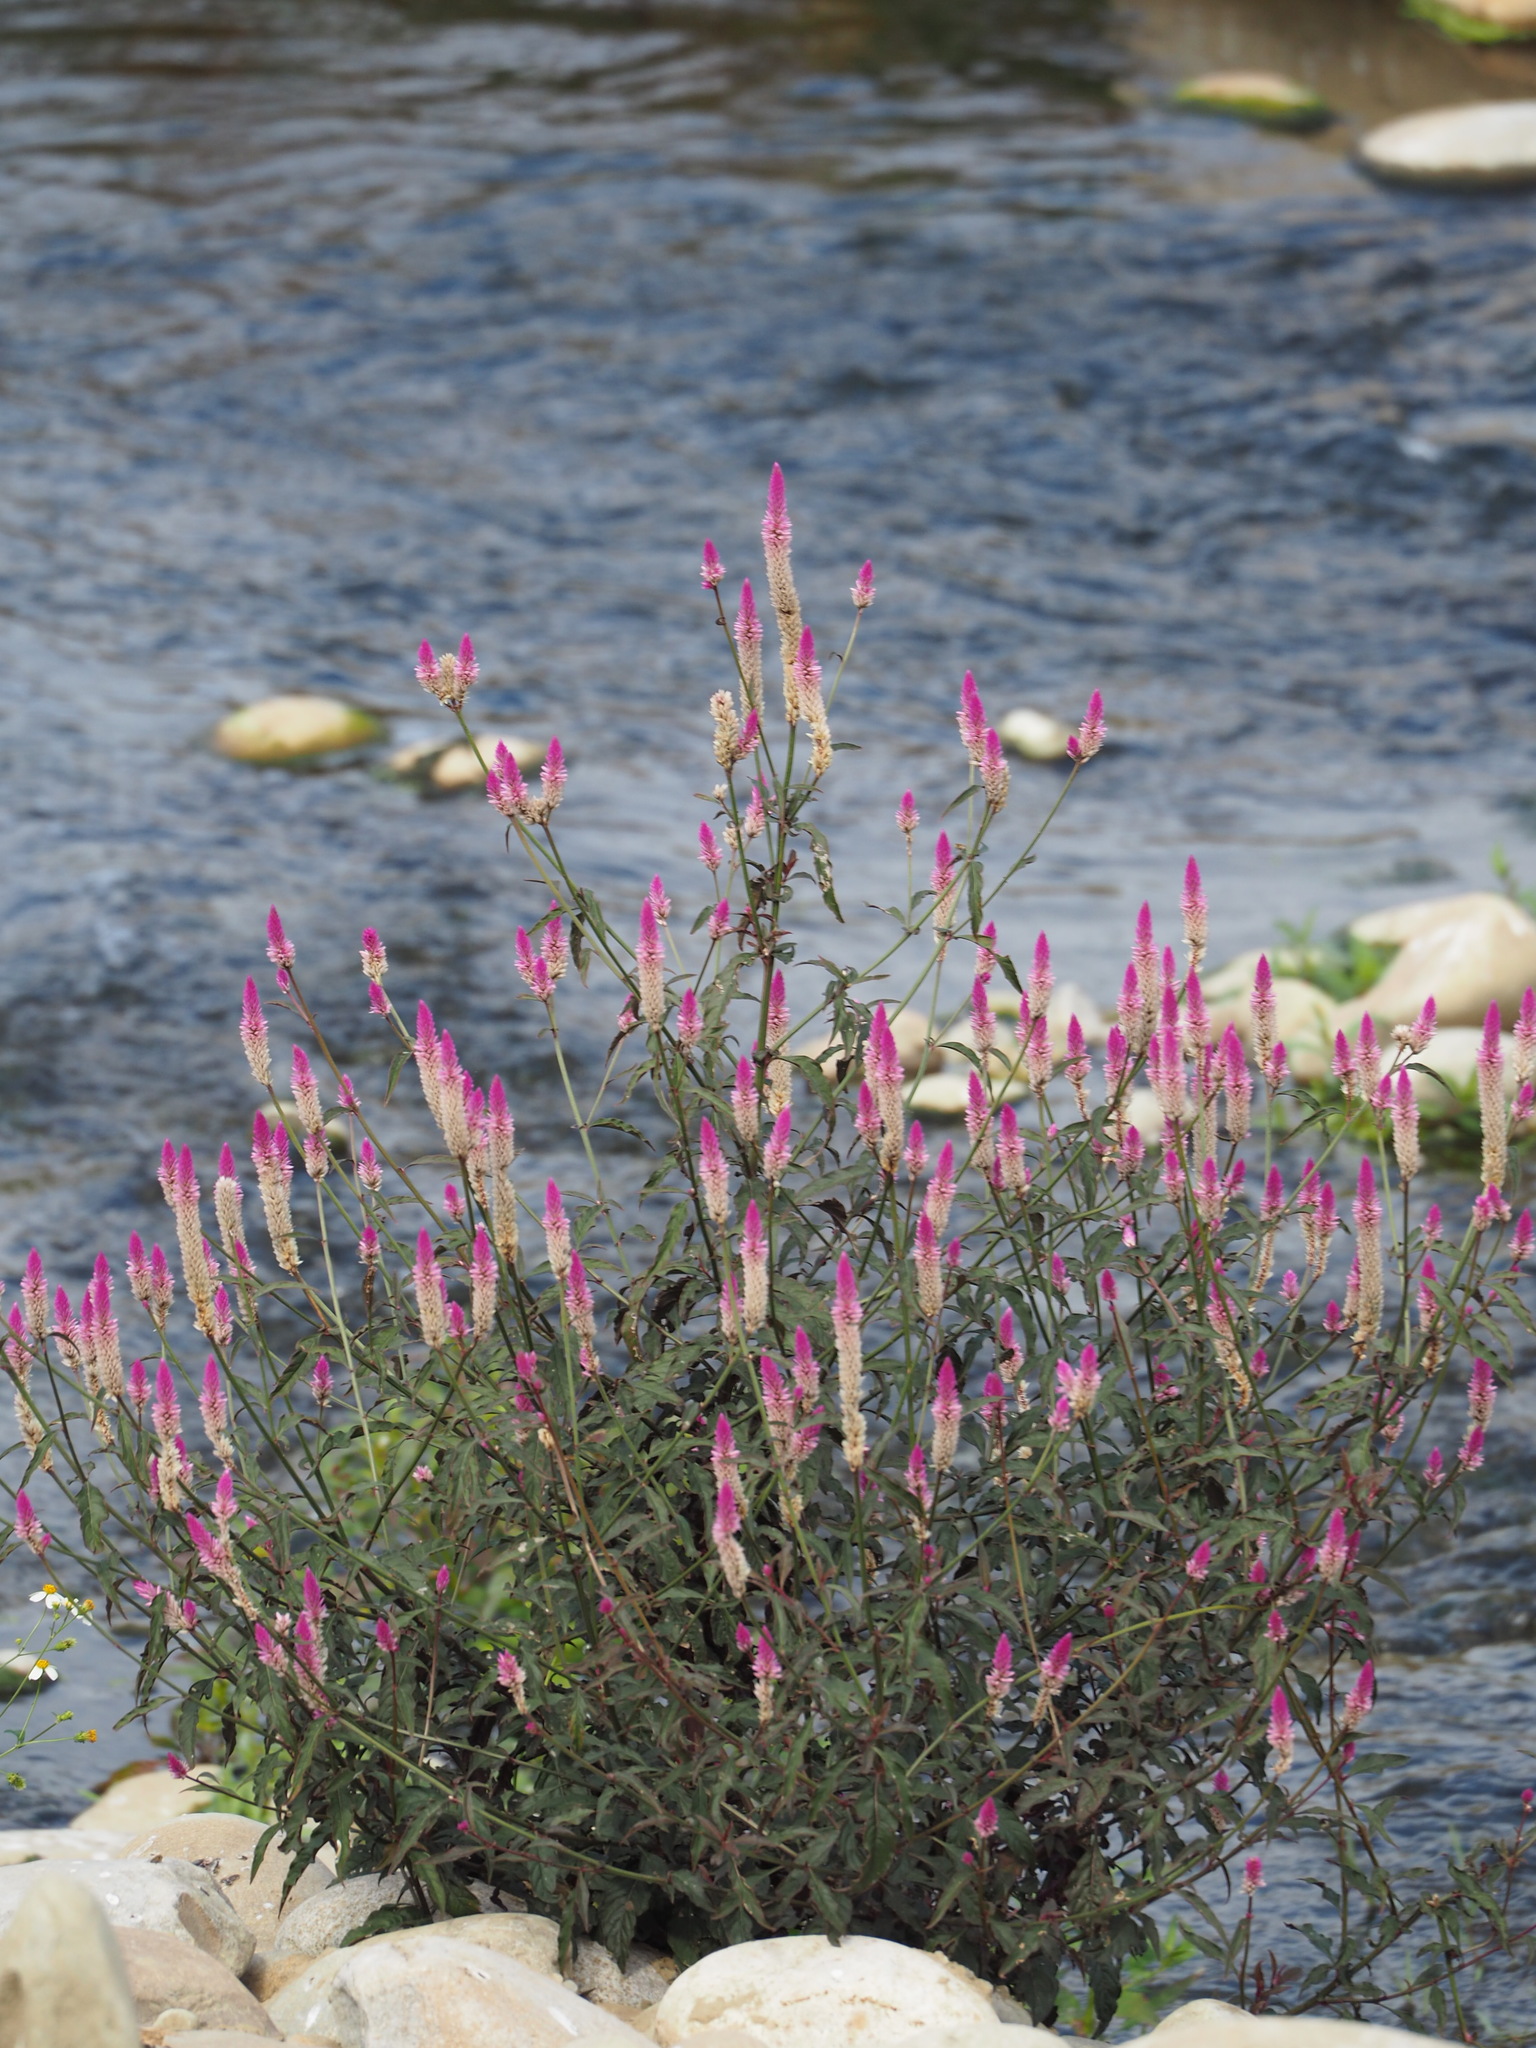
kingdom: Plantae
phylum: Tracheophyta
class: Magnoliopsida
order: Caryophyllales
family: Amaranthaceae
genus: Celosia
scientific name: Celosia argentea
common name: Feather cockscomb
